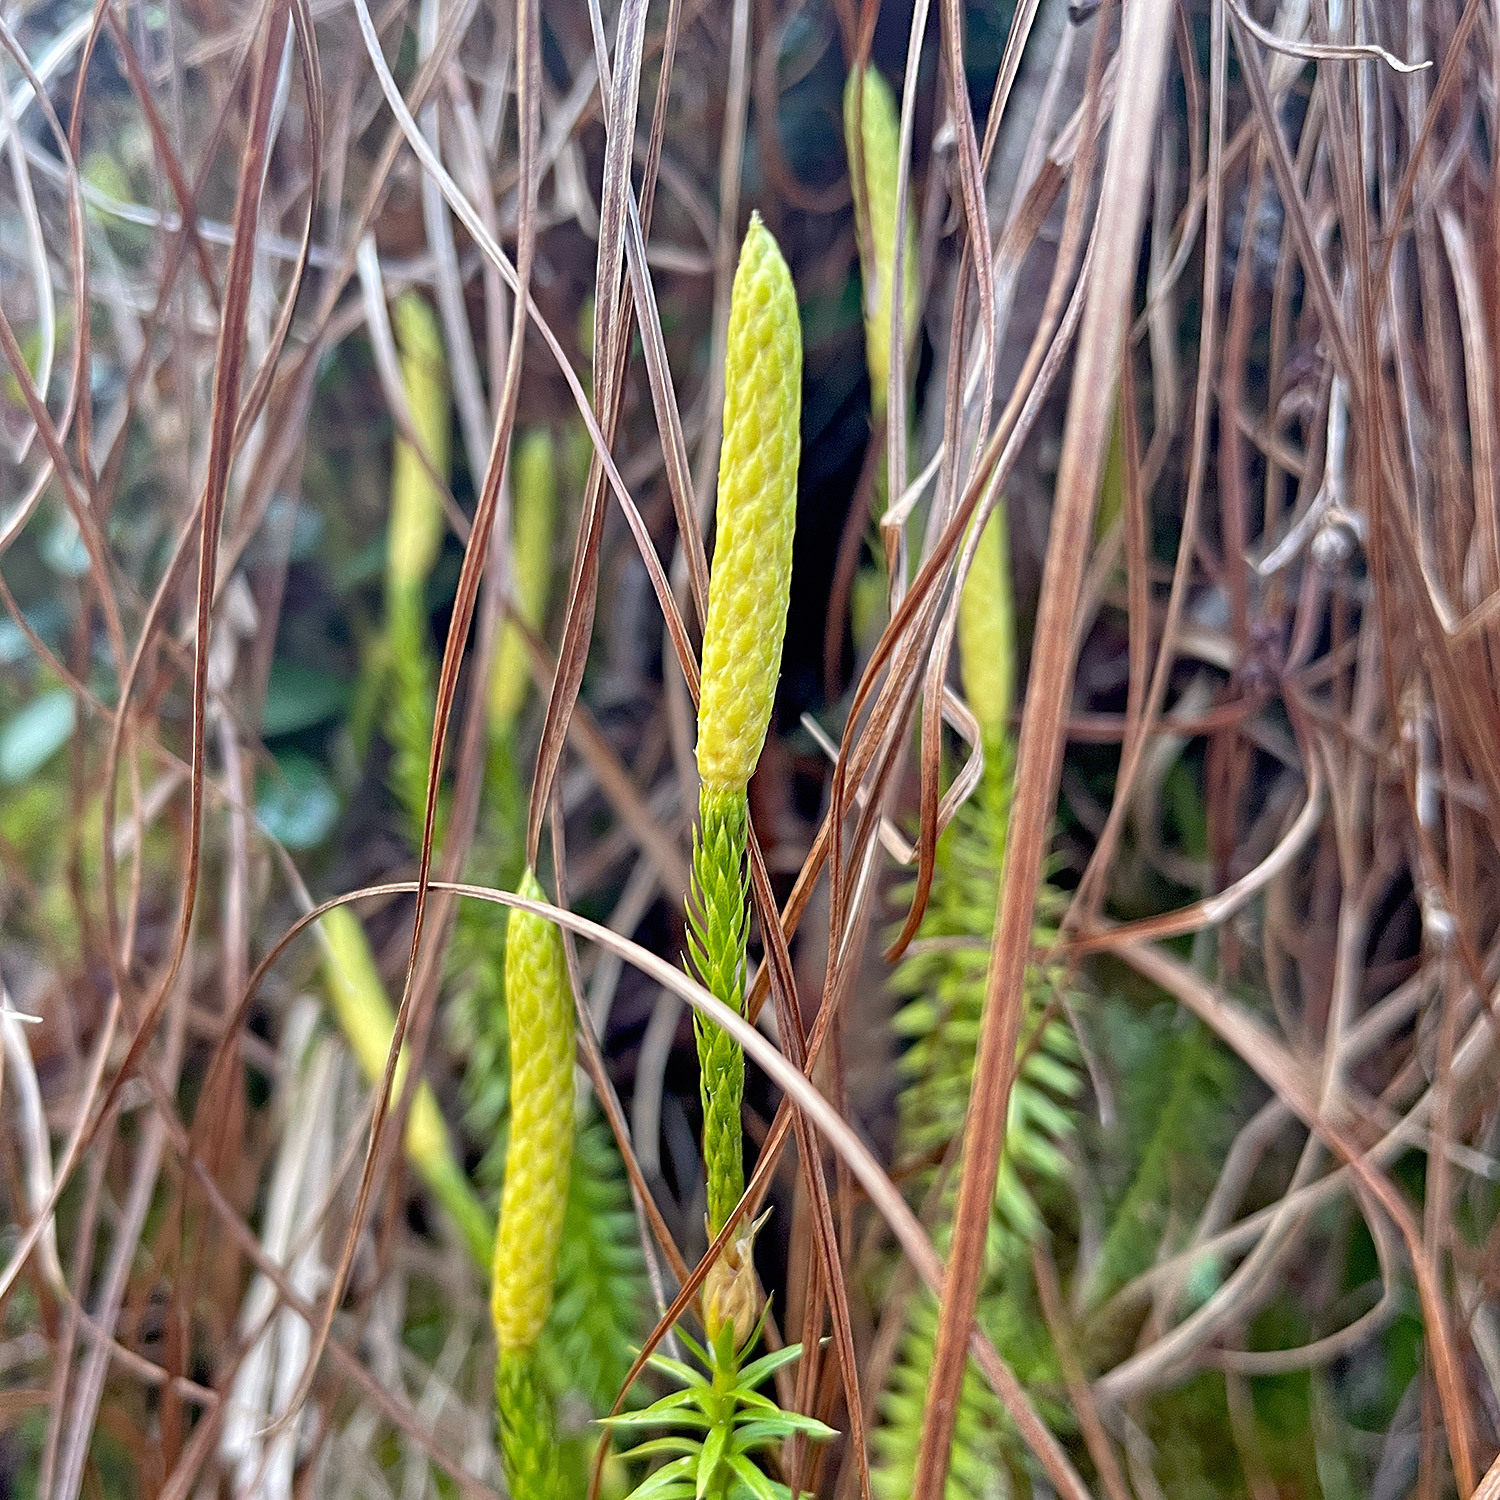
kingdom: Plantae
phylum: Tracheophyta
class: Lycopodiopsida
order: Lycopodiales
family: Lycopodiaceae
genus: Spinulum
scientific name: Spinulum annotinum
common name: Interrupted club-moss
